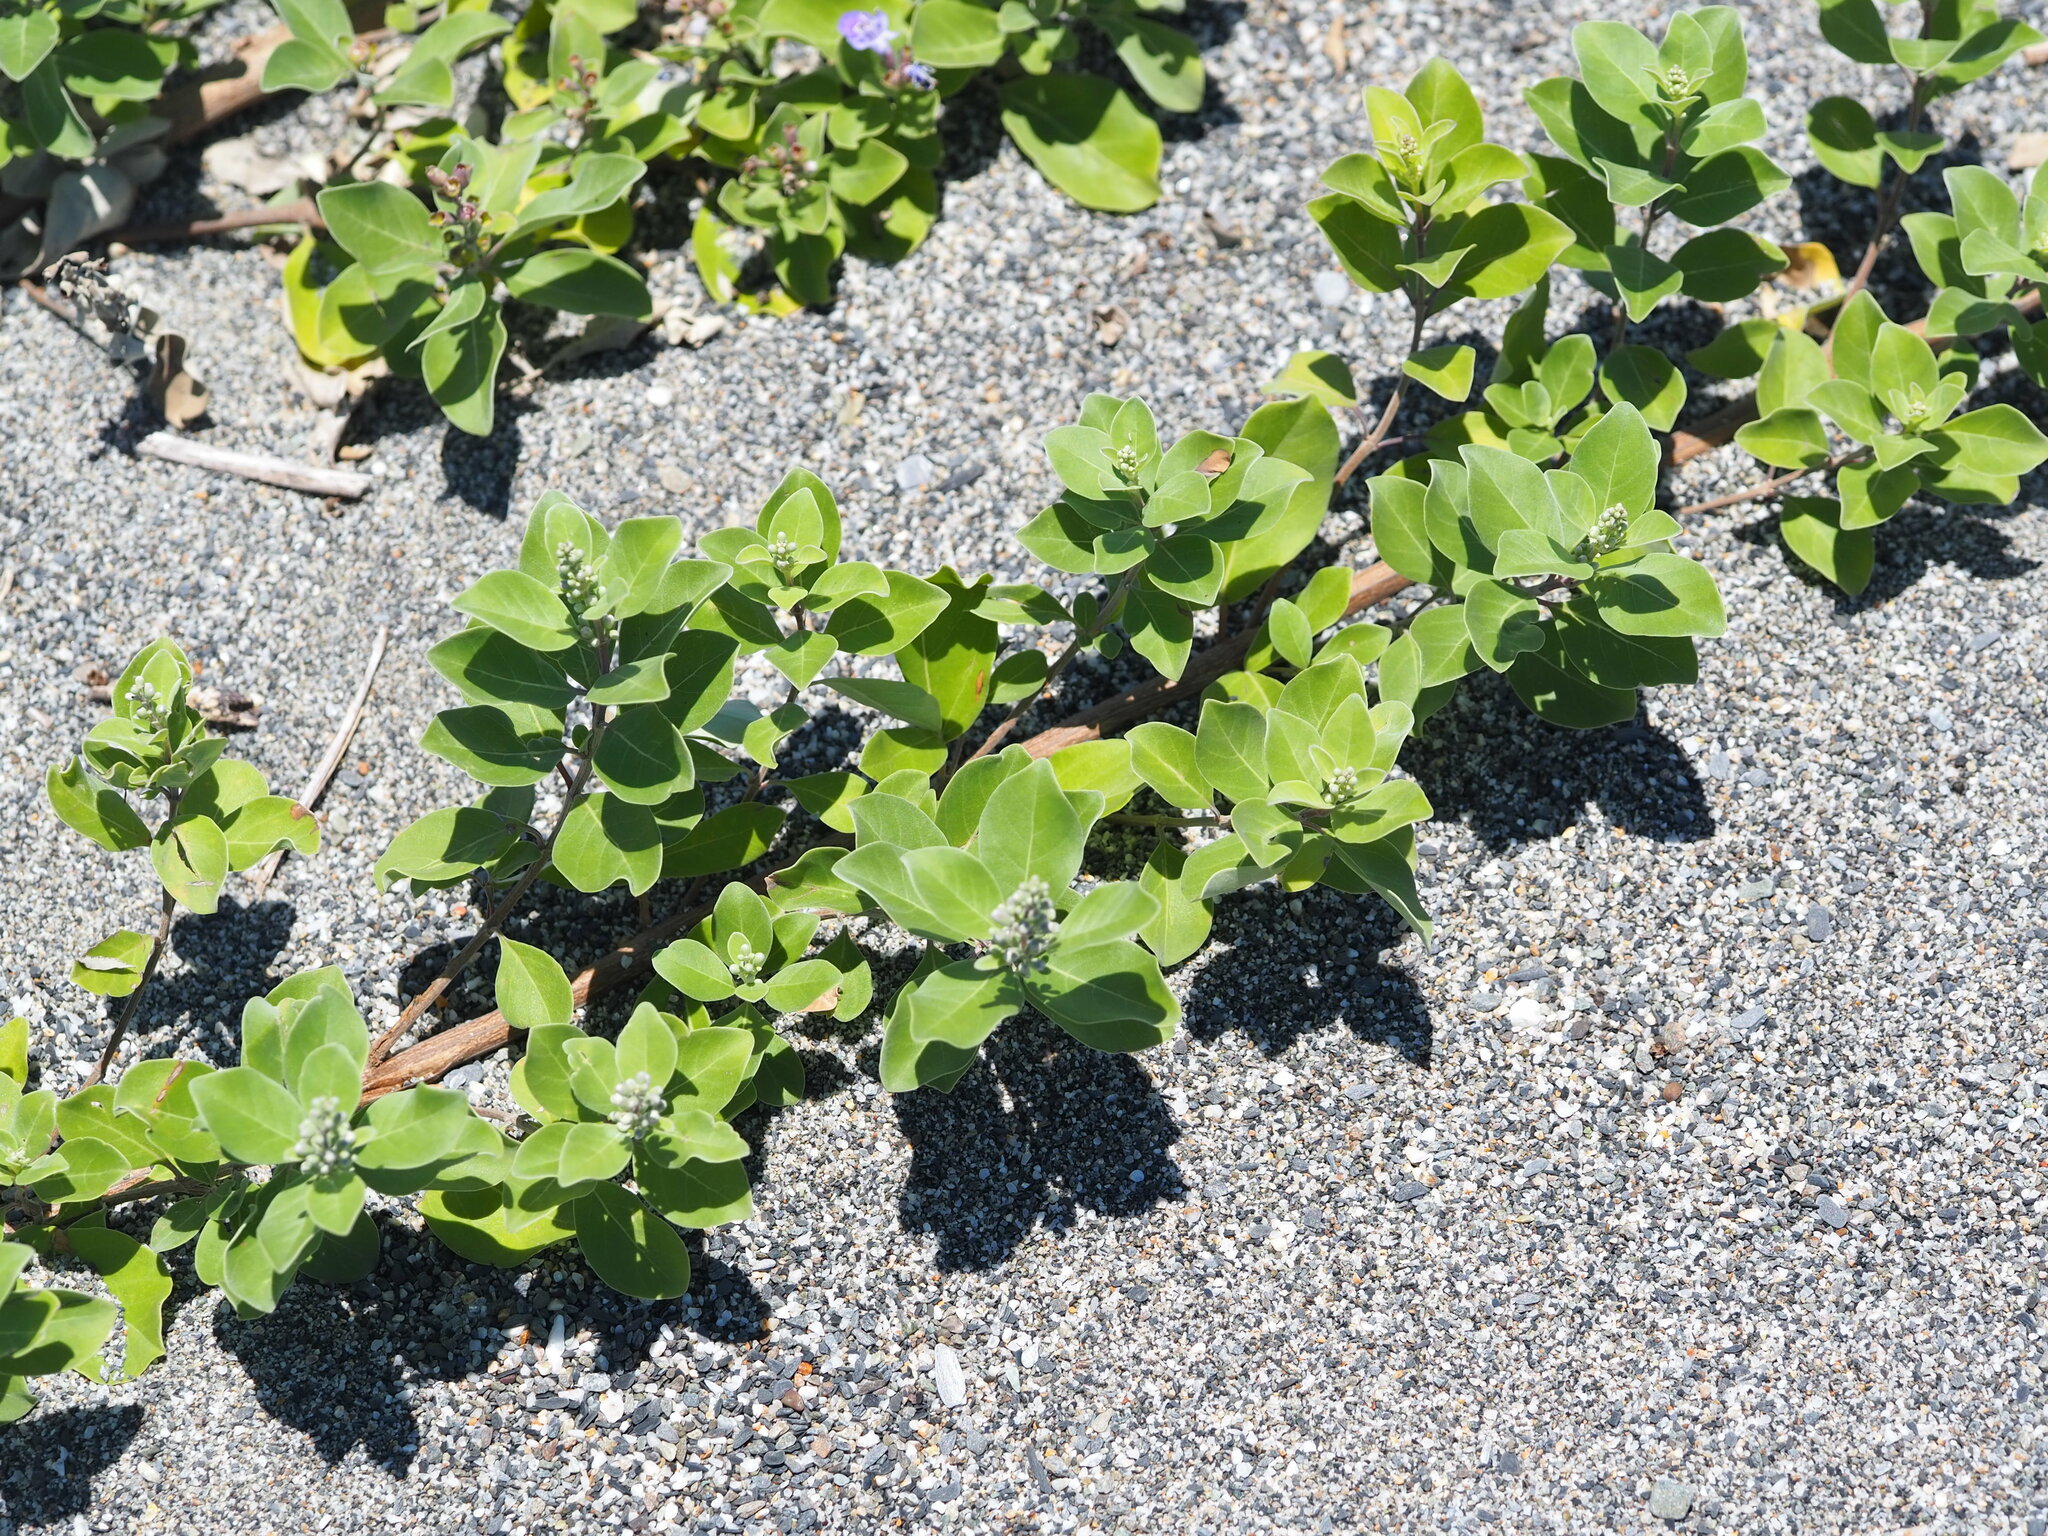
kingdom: Plantae
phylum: Tracheophyta
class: Magnoliopsida
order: Lamiales
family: Lamiaceae
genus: Vitex
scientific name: Vitex rotundifolia
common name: Beach vitex
